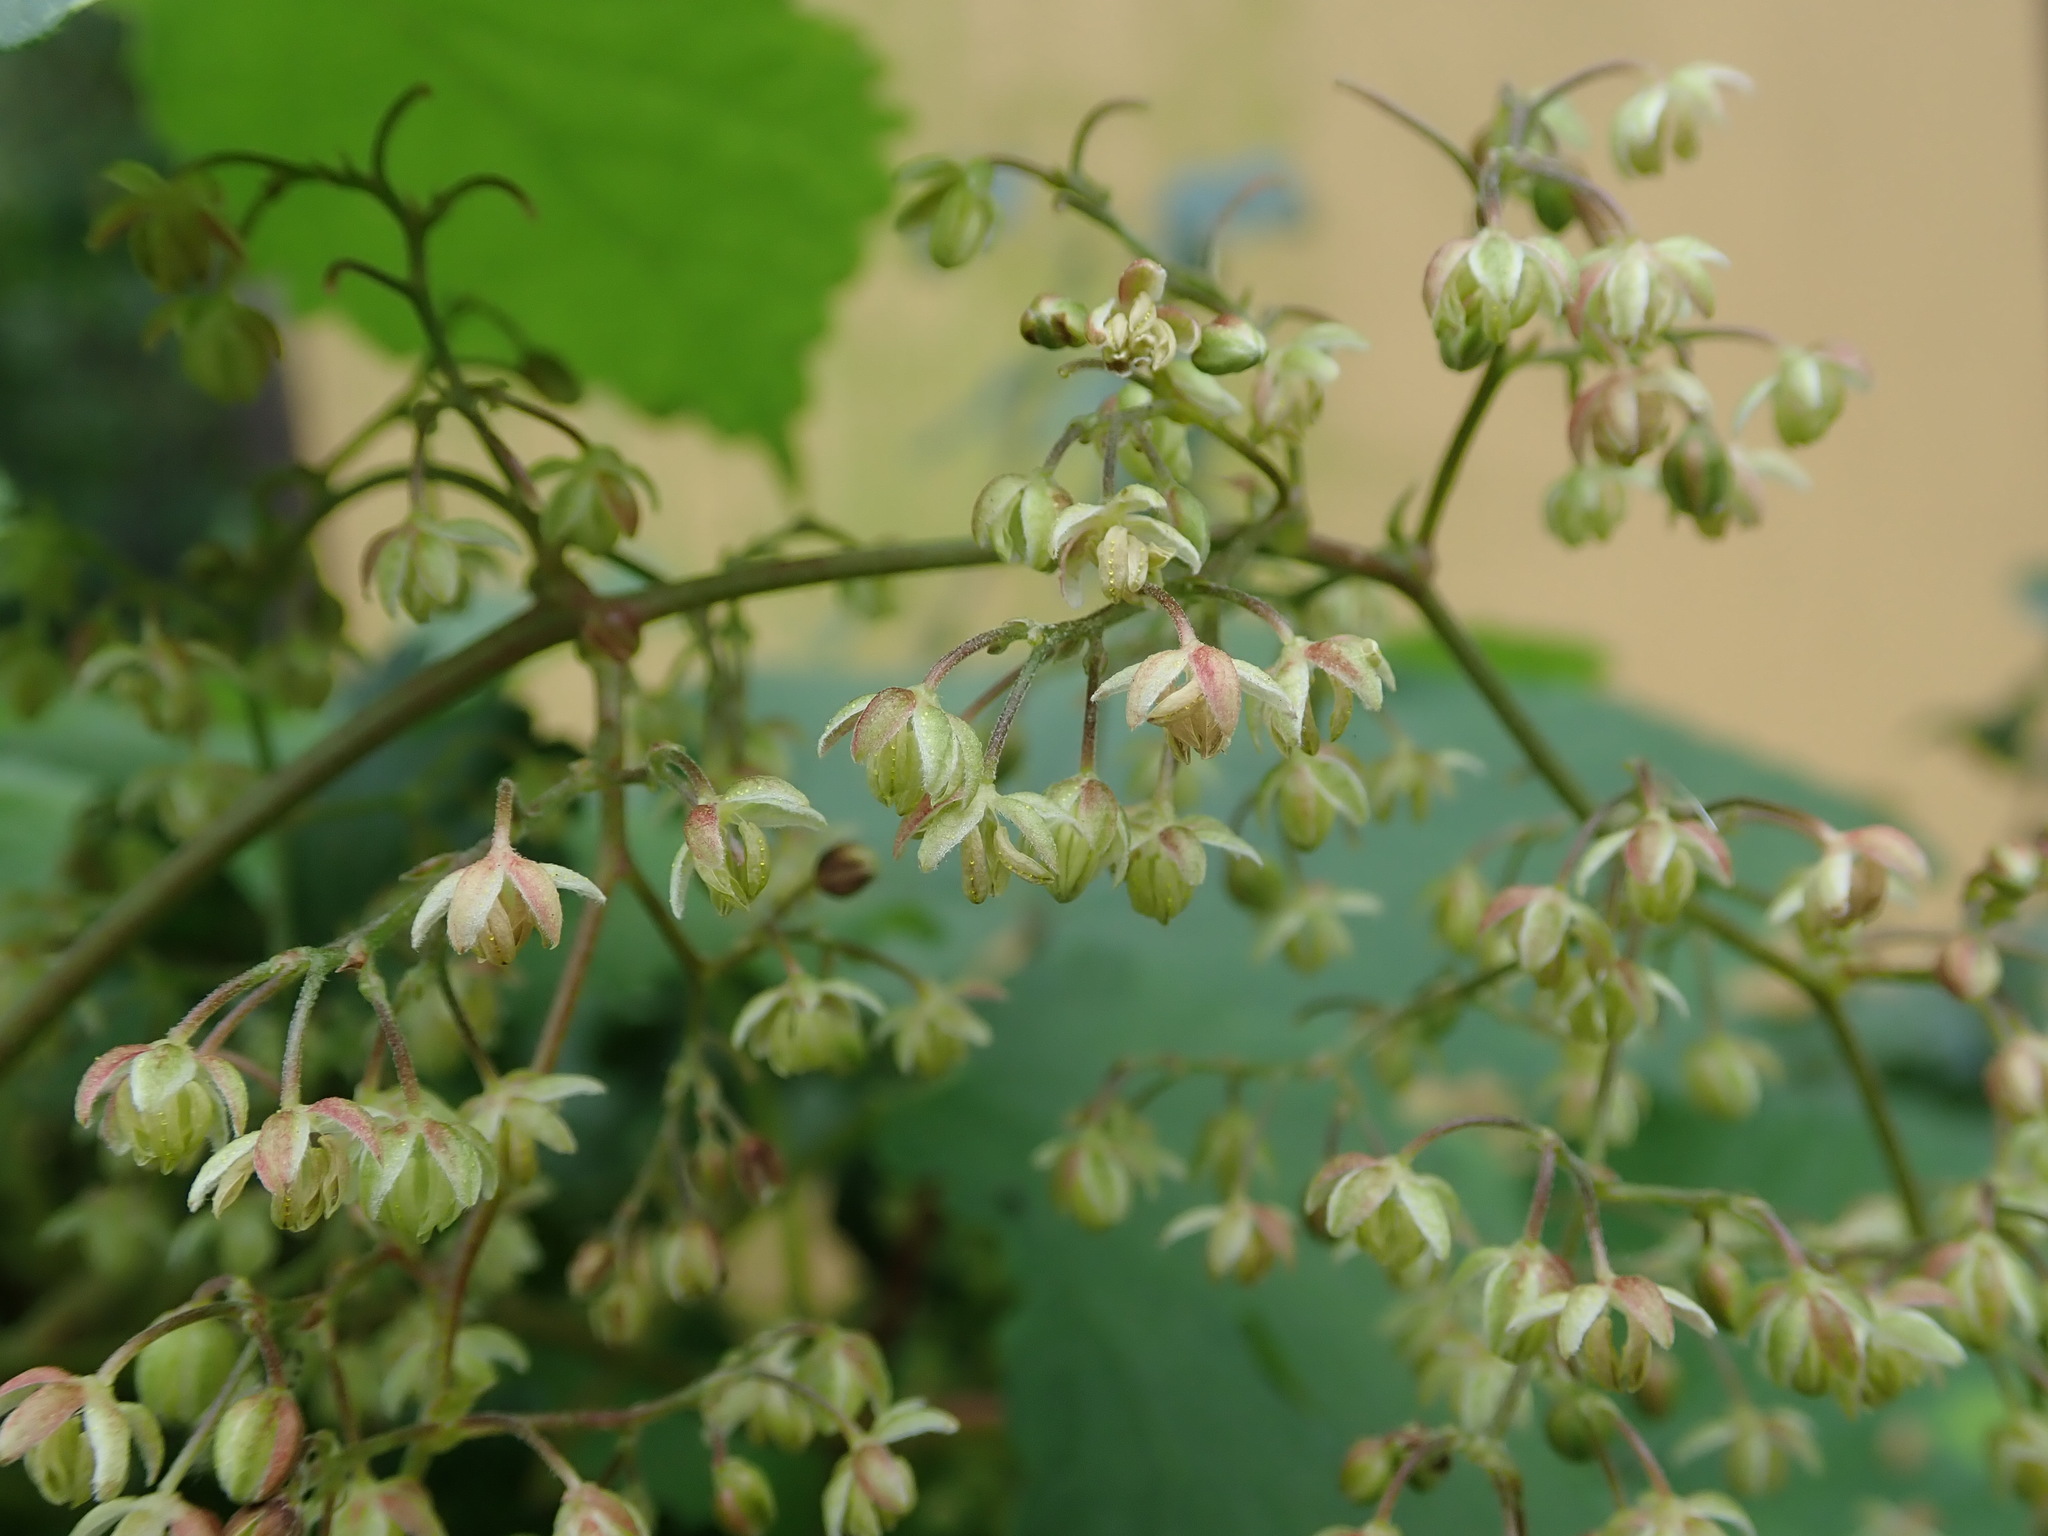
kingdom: Plantae
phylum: Tracheophyta
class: Magnoliopsida
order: Rosales
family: Cannabaceae
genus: Humulus
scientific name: Humulus lupulus
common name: Hop
